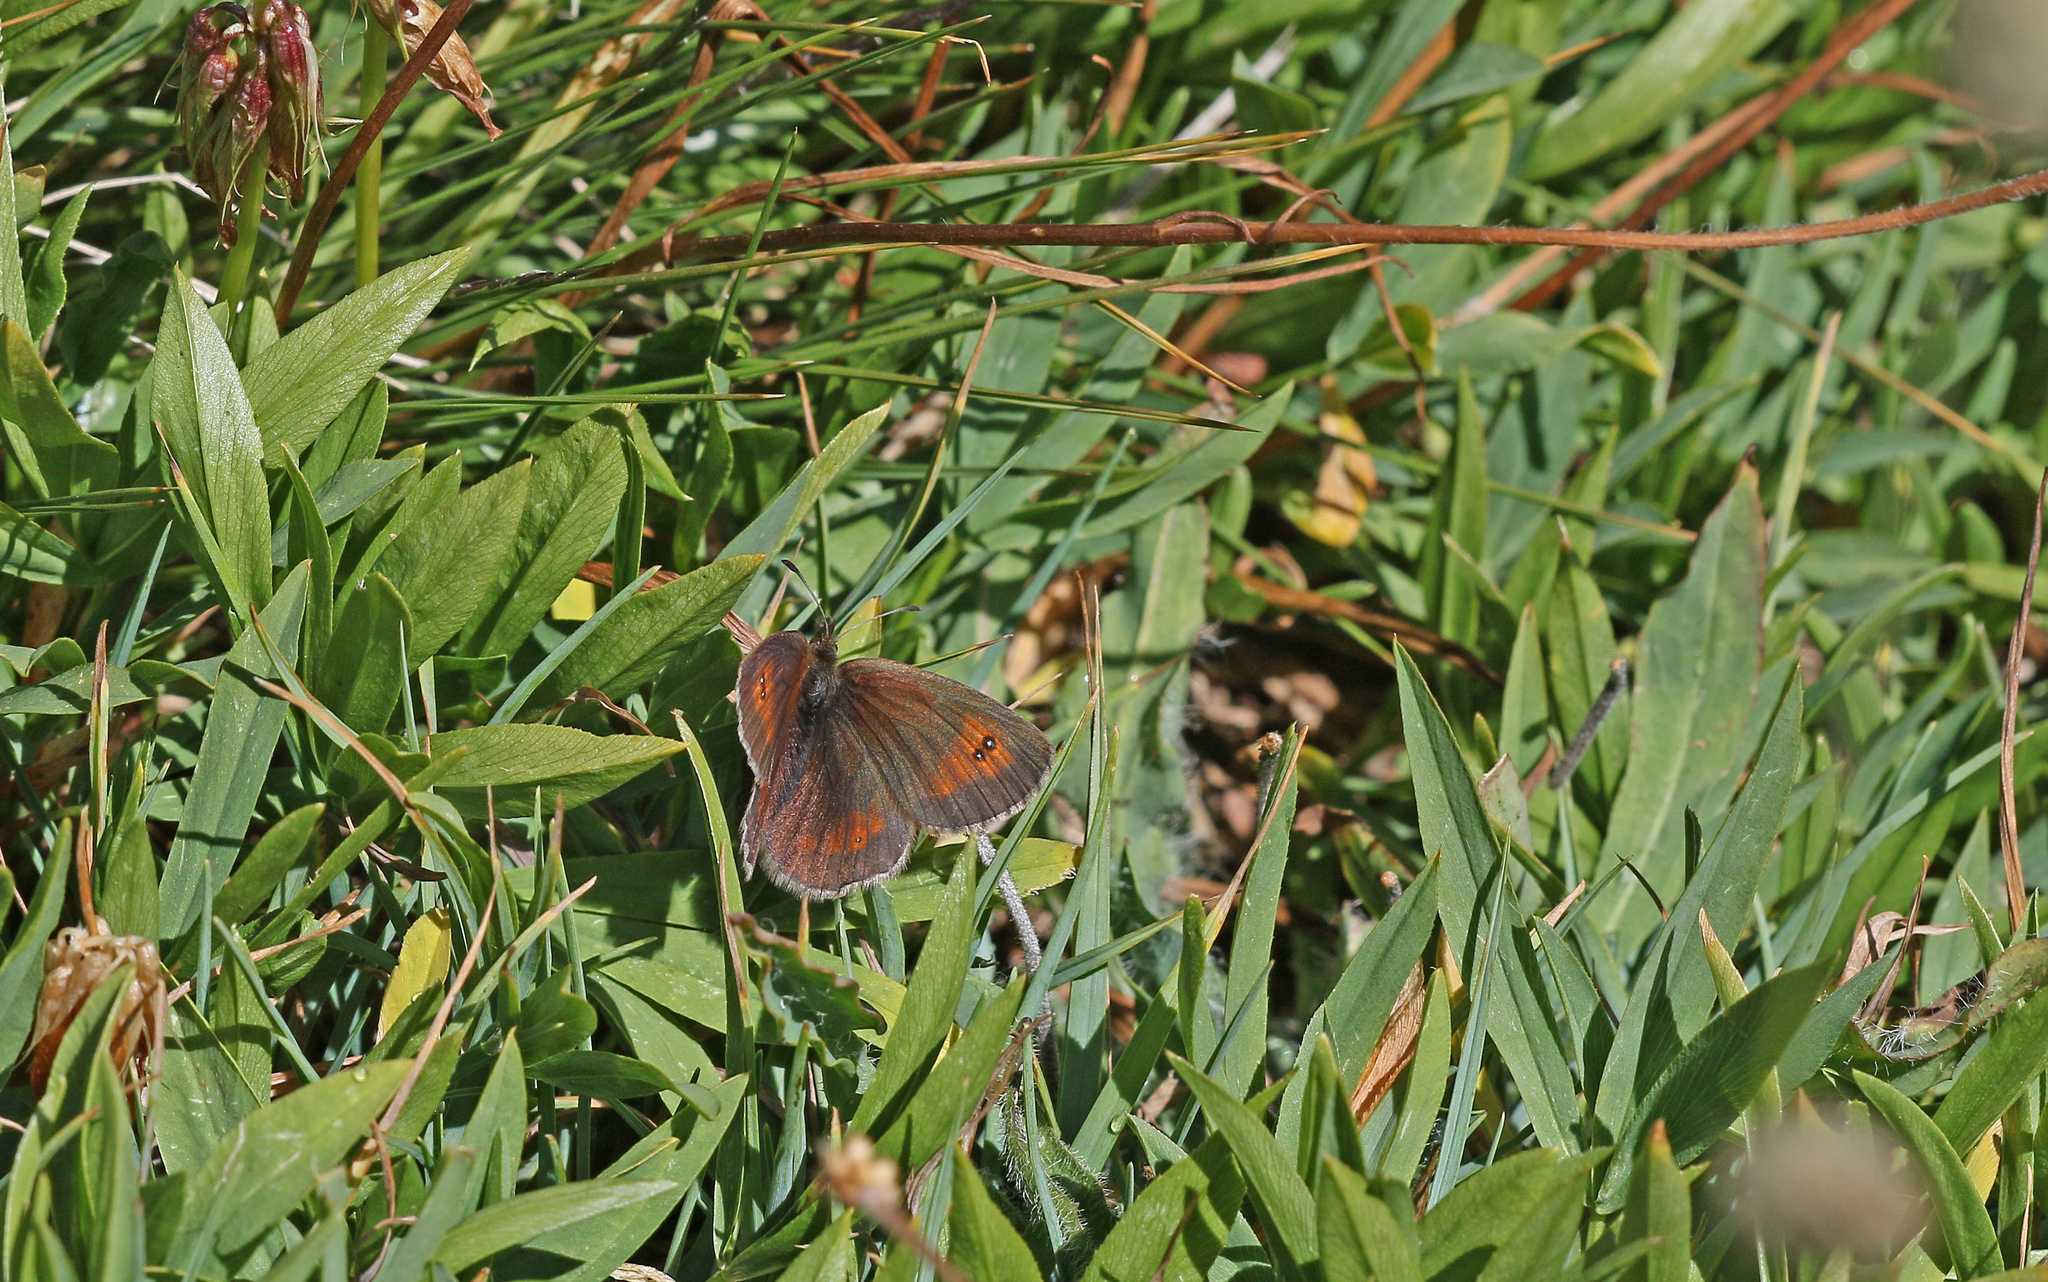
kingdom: Animalia
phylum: Arthropoda
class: Insecta
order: Lepidoptera
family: Nymphalidae
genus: Erebia
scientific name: Erebia cassioides
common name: Common brassy ringlet
